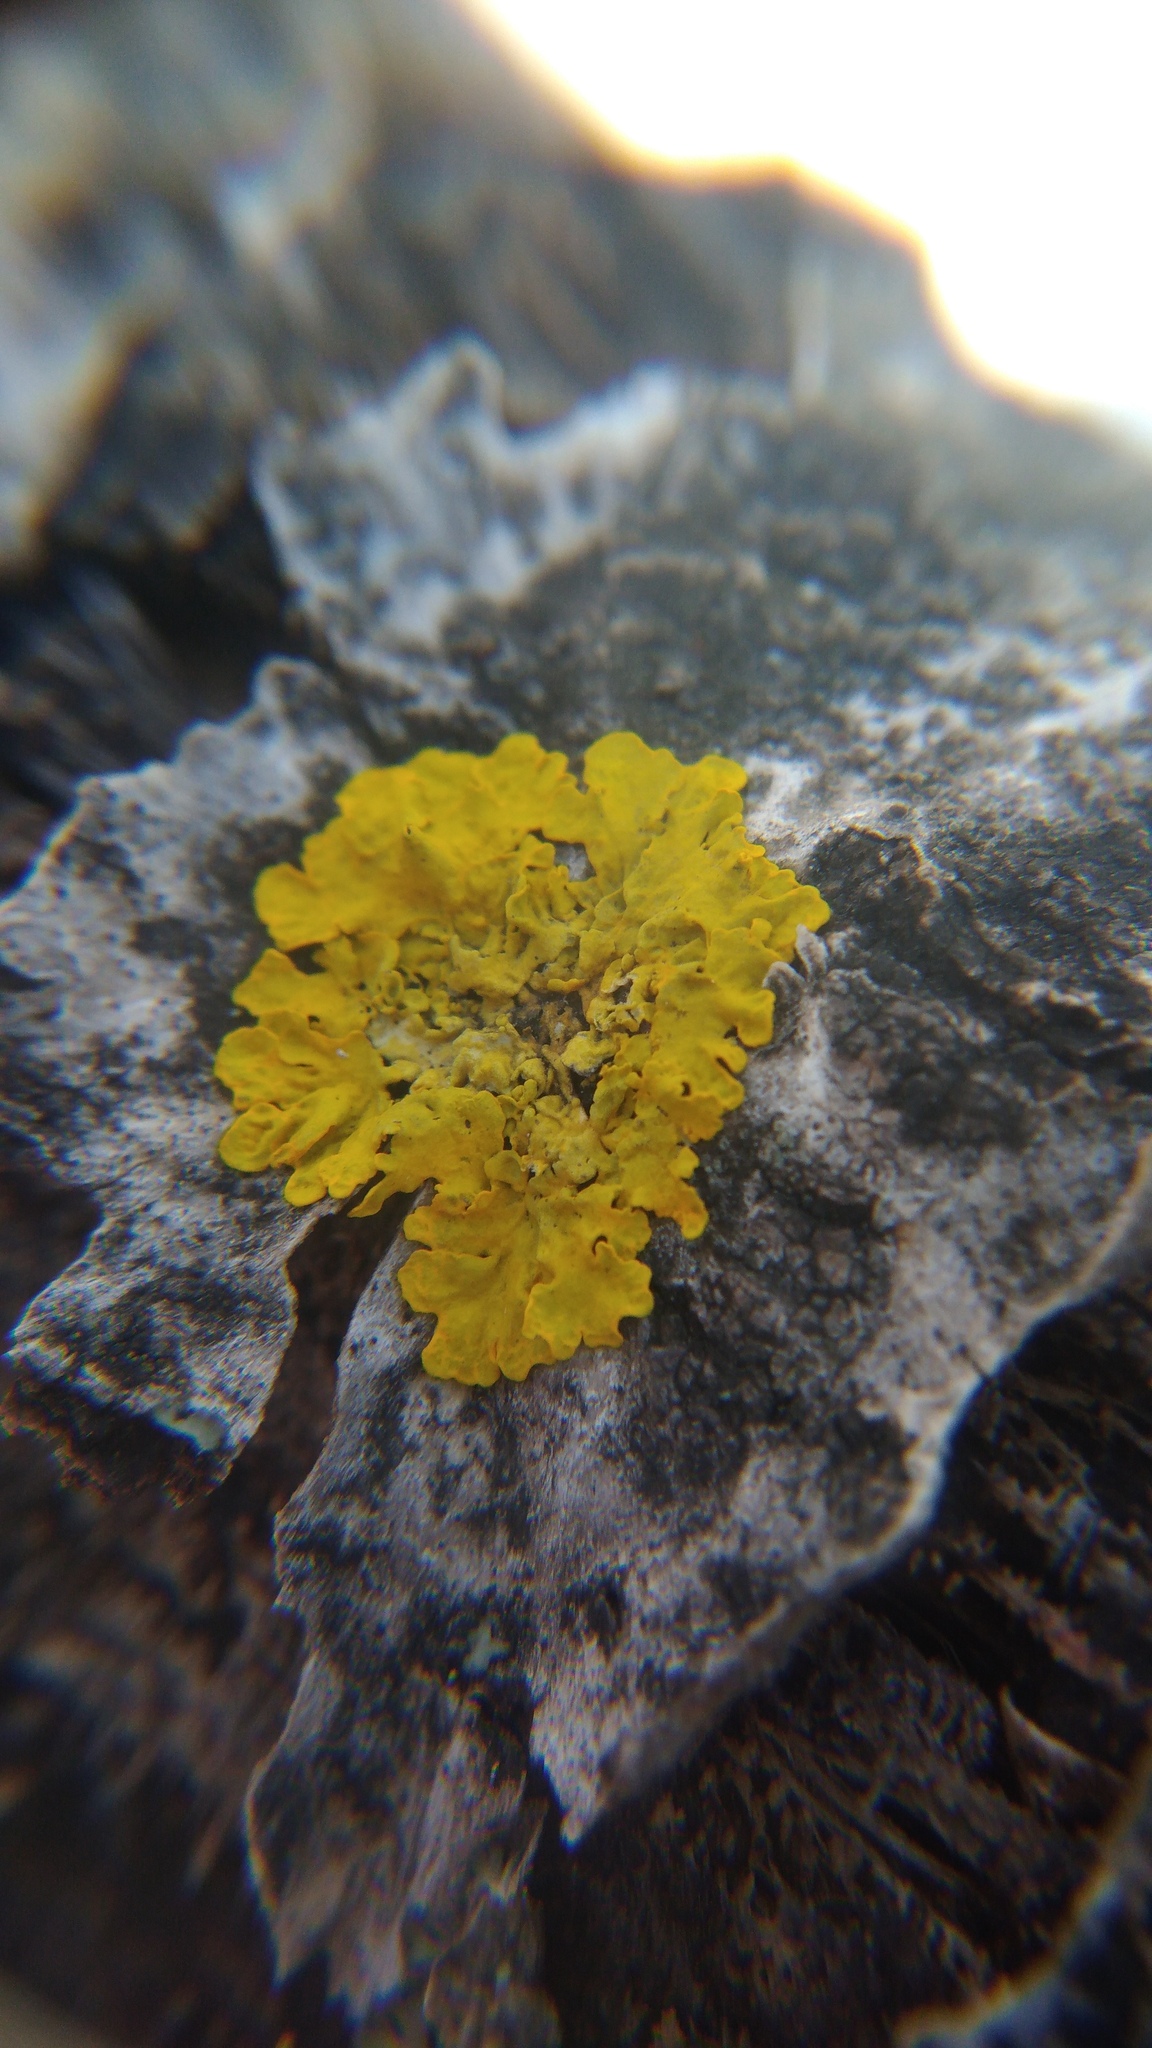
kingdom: Fungi
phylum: Ascomycota
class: Lecanoromycetes
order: Teloschistales
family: Teloschistaceae
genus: Xanthoria
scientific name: Xanthoria parietina
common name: Common orange lichen
